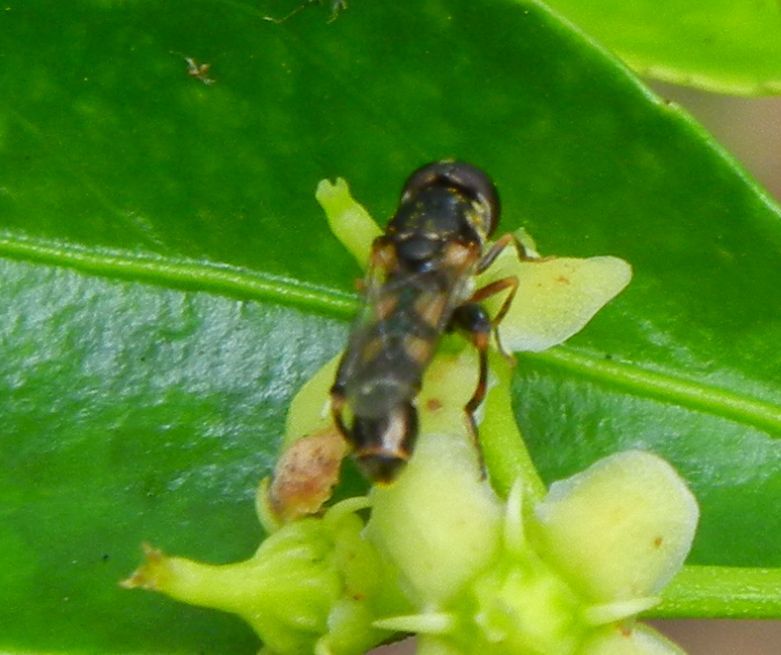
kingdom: Animalia
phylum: Arthropoda
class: Insecta
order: Diptera
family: Syrphidae
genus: Syritta
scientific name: Syritta pipiens
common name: Hover fly
